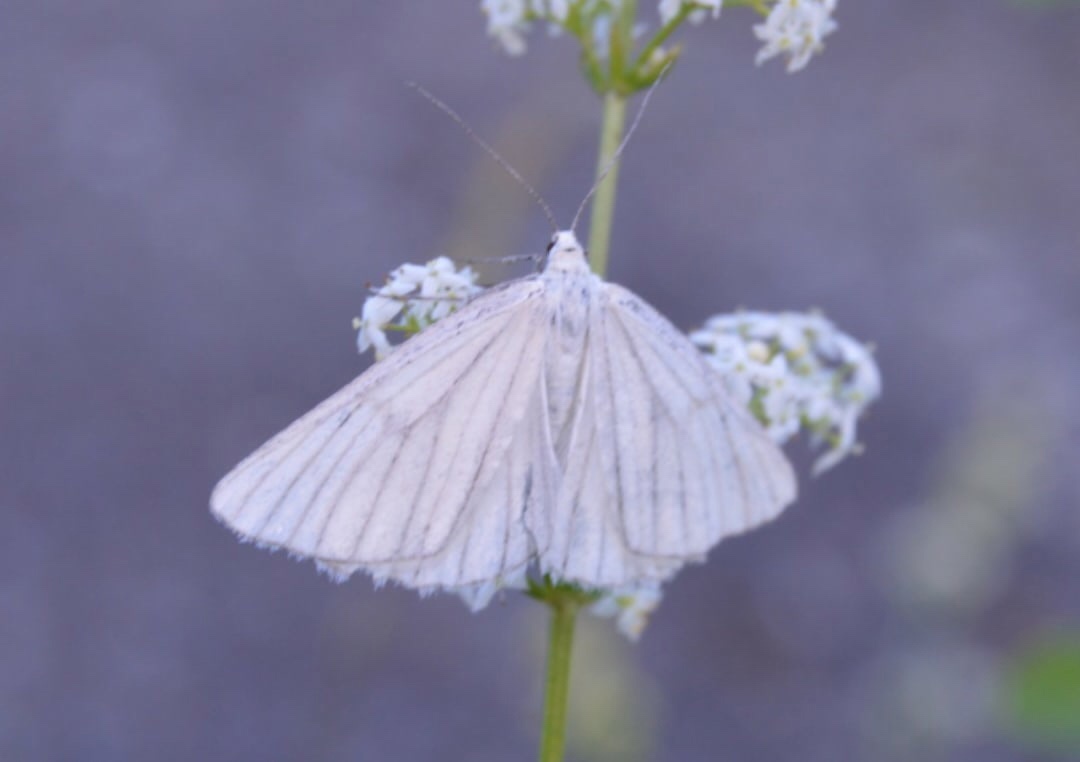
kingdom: Animalia
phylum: Arthropoda
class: Insecta
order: Lepidoptera
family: Geometridae
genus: Siona
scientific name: Siona lineata
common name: Black-veined moth
